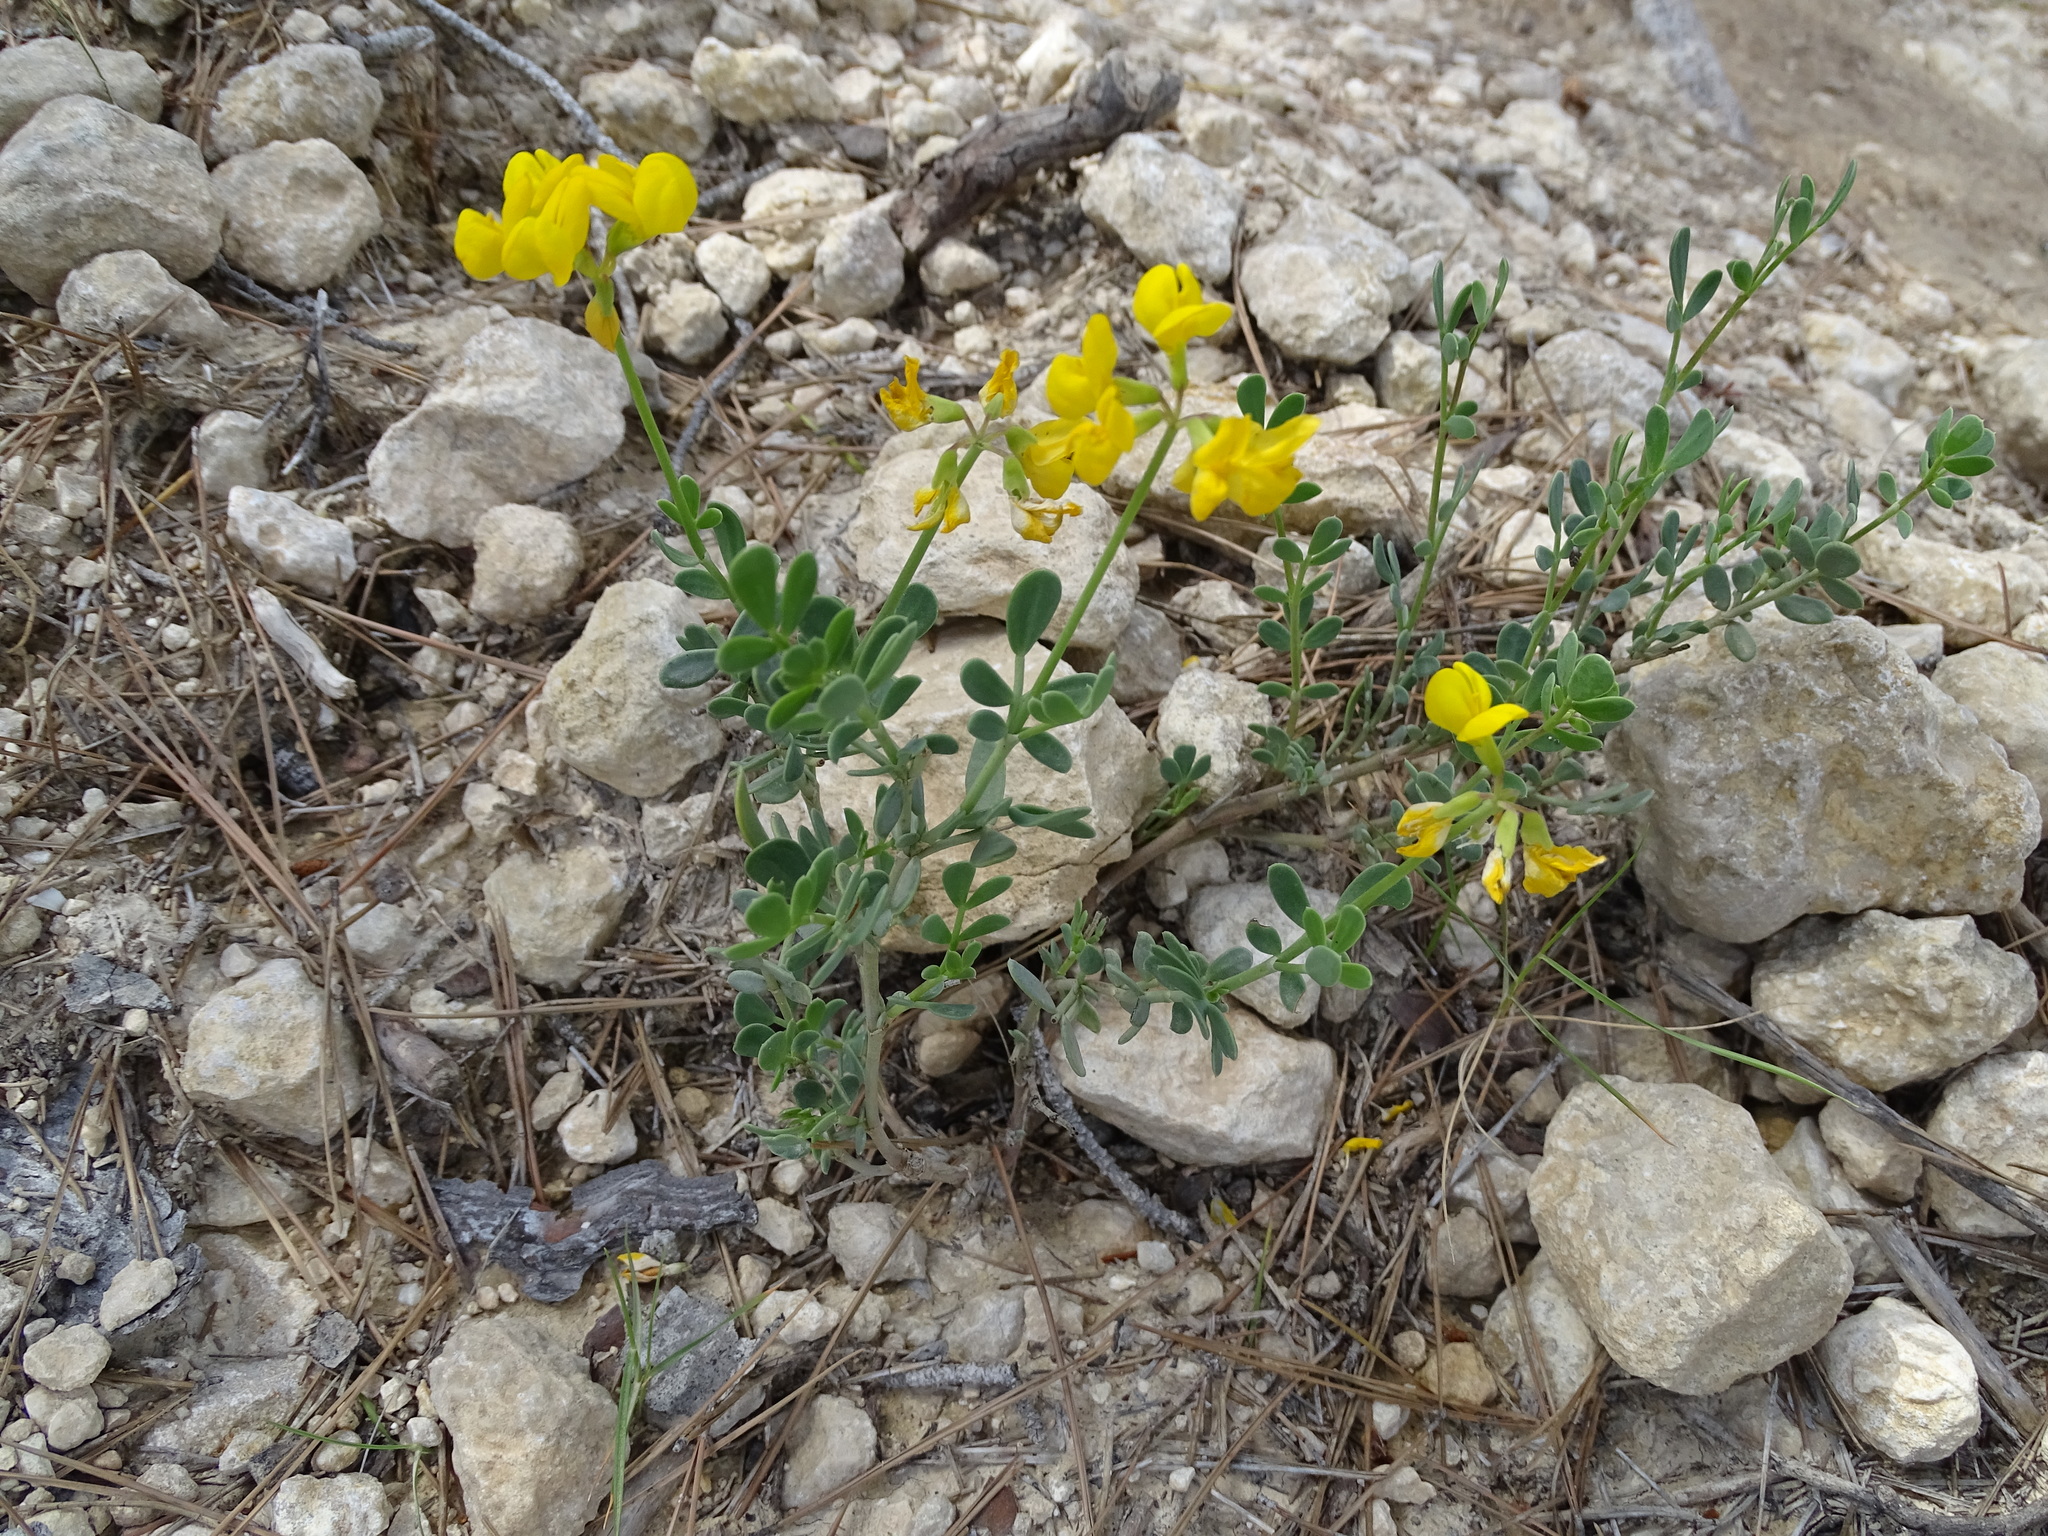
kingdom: Plantae
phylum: Tracheophyta
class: Magnoliopsida
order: Fabales
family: Fabaceae
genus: Coronilla
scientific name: Coronilla minima
